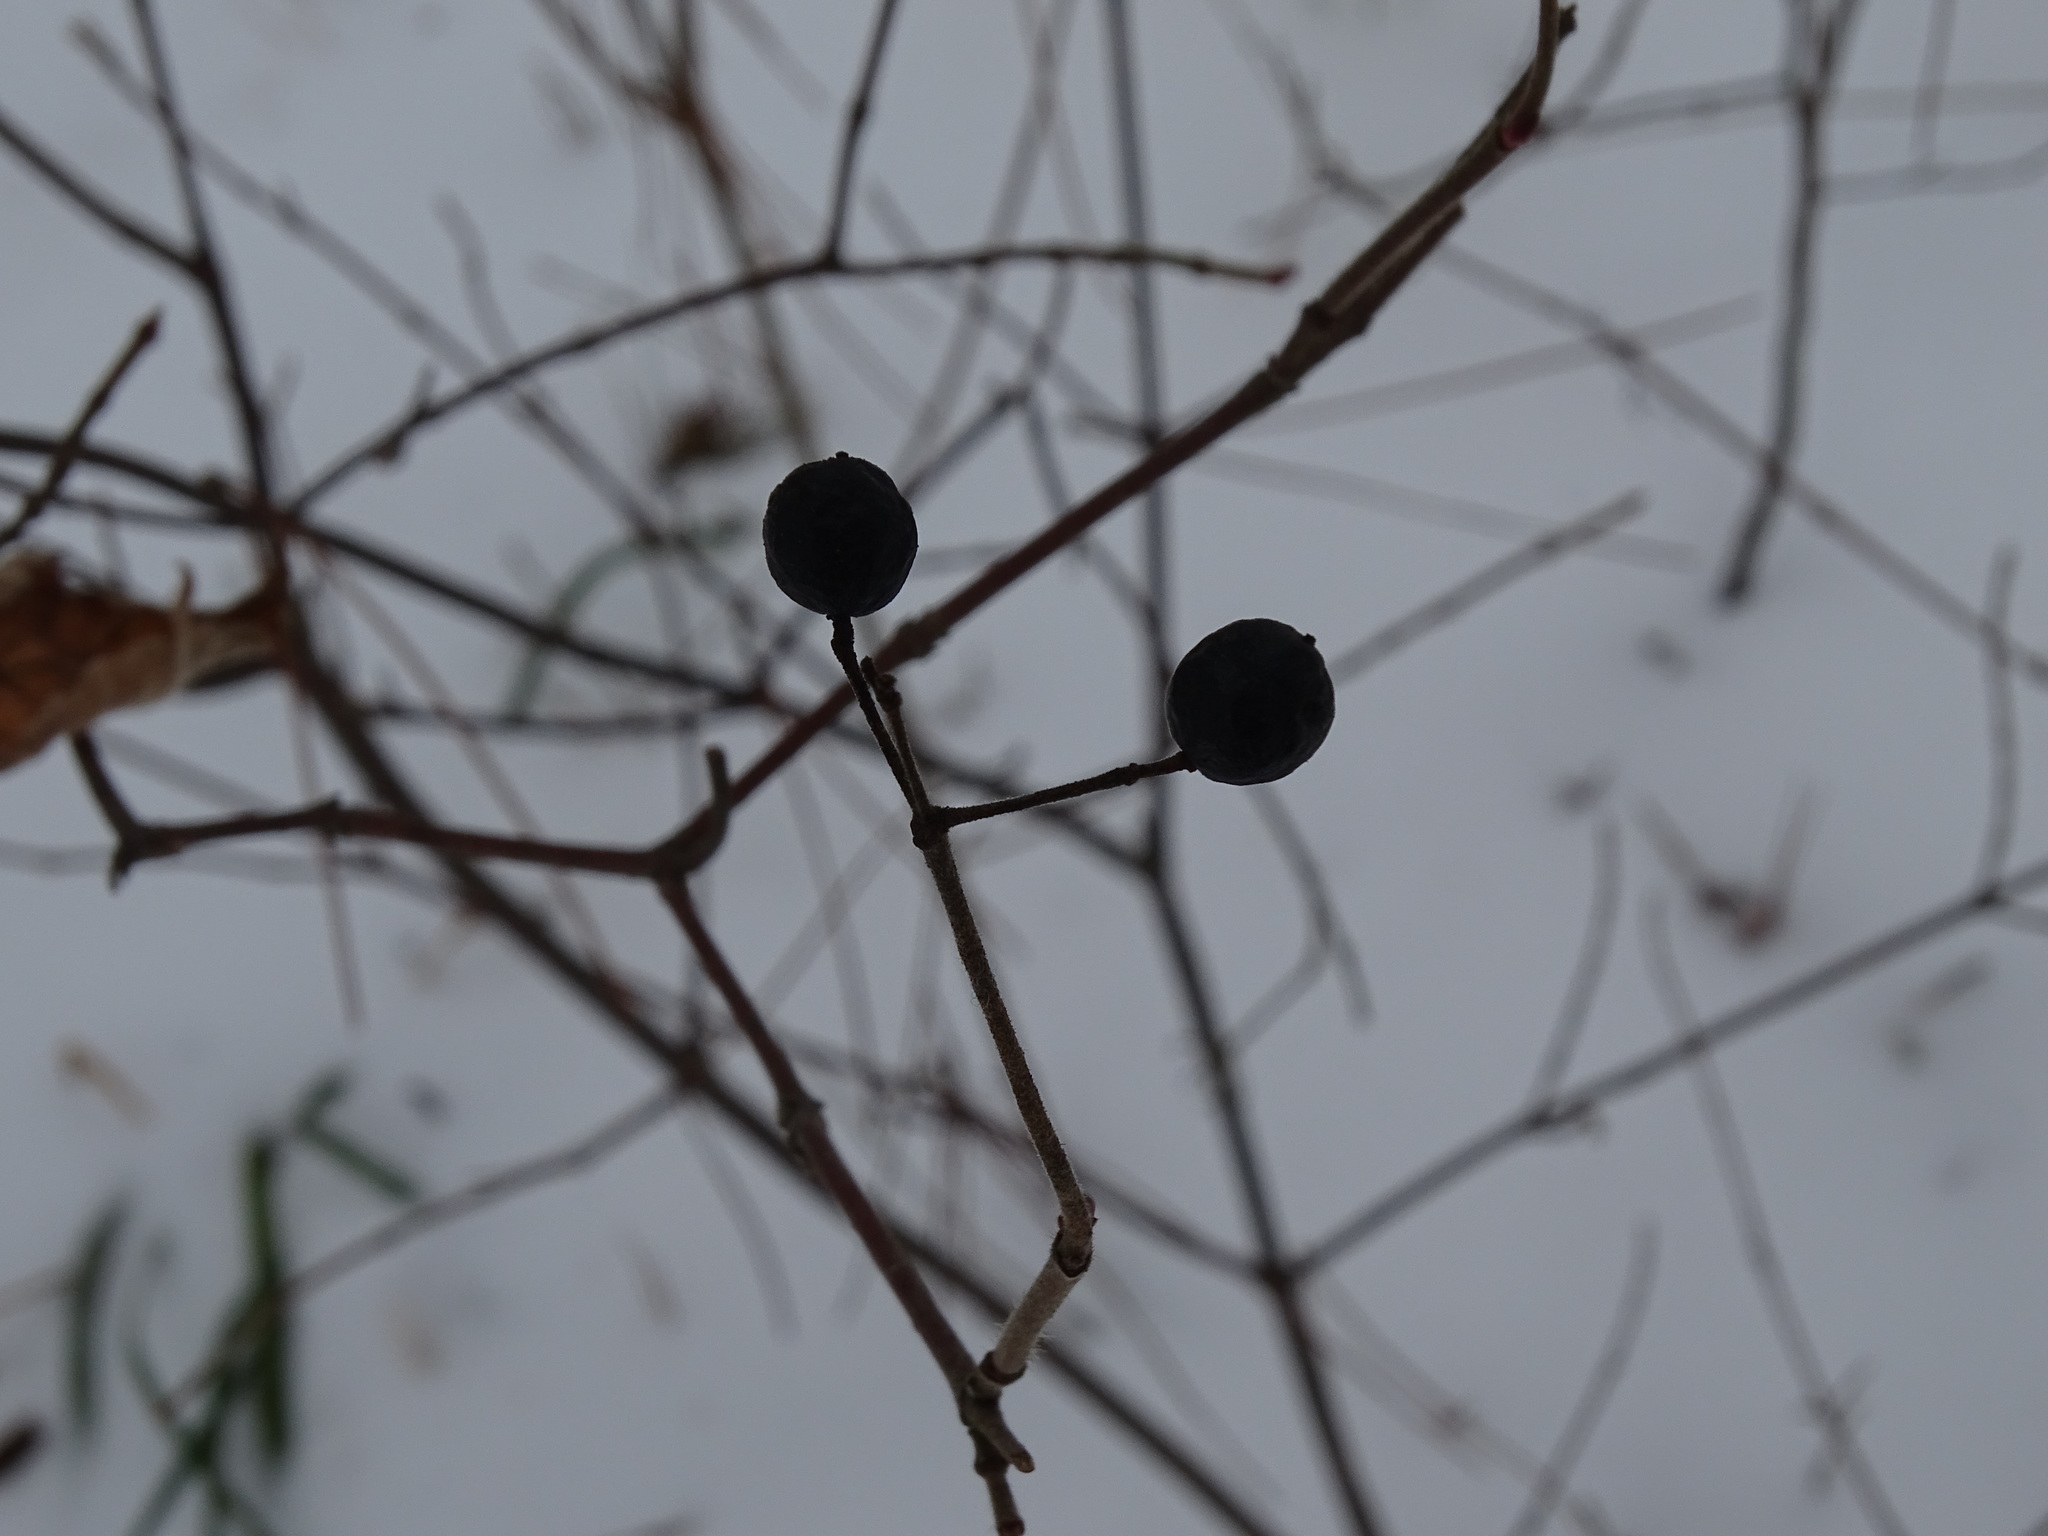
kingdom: Plantae
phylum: Tracheophyta
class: Magnoliopsida
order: Dipsacales
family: Viburnaceae
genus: Viburnum
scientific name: Viburnum acerifolium
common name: Dockmackie
